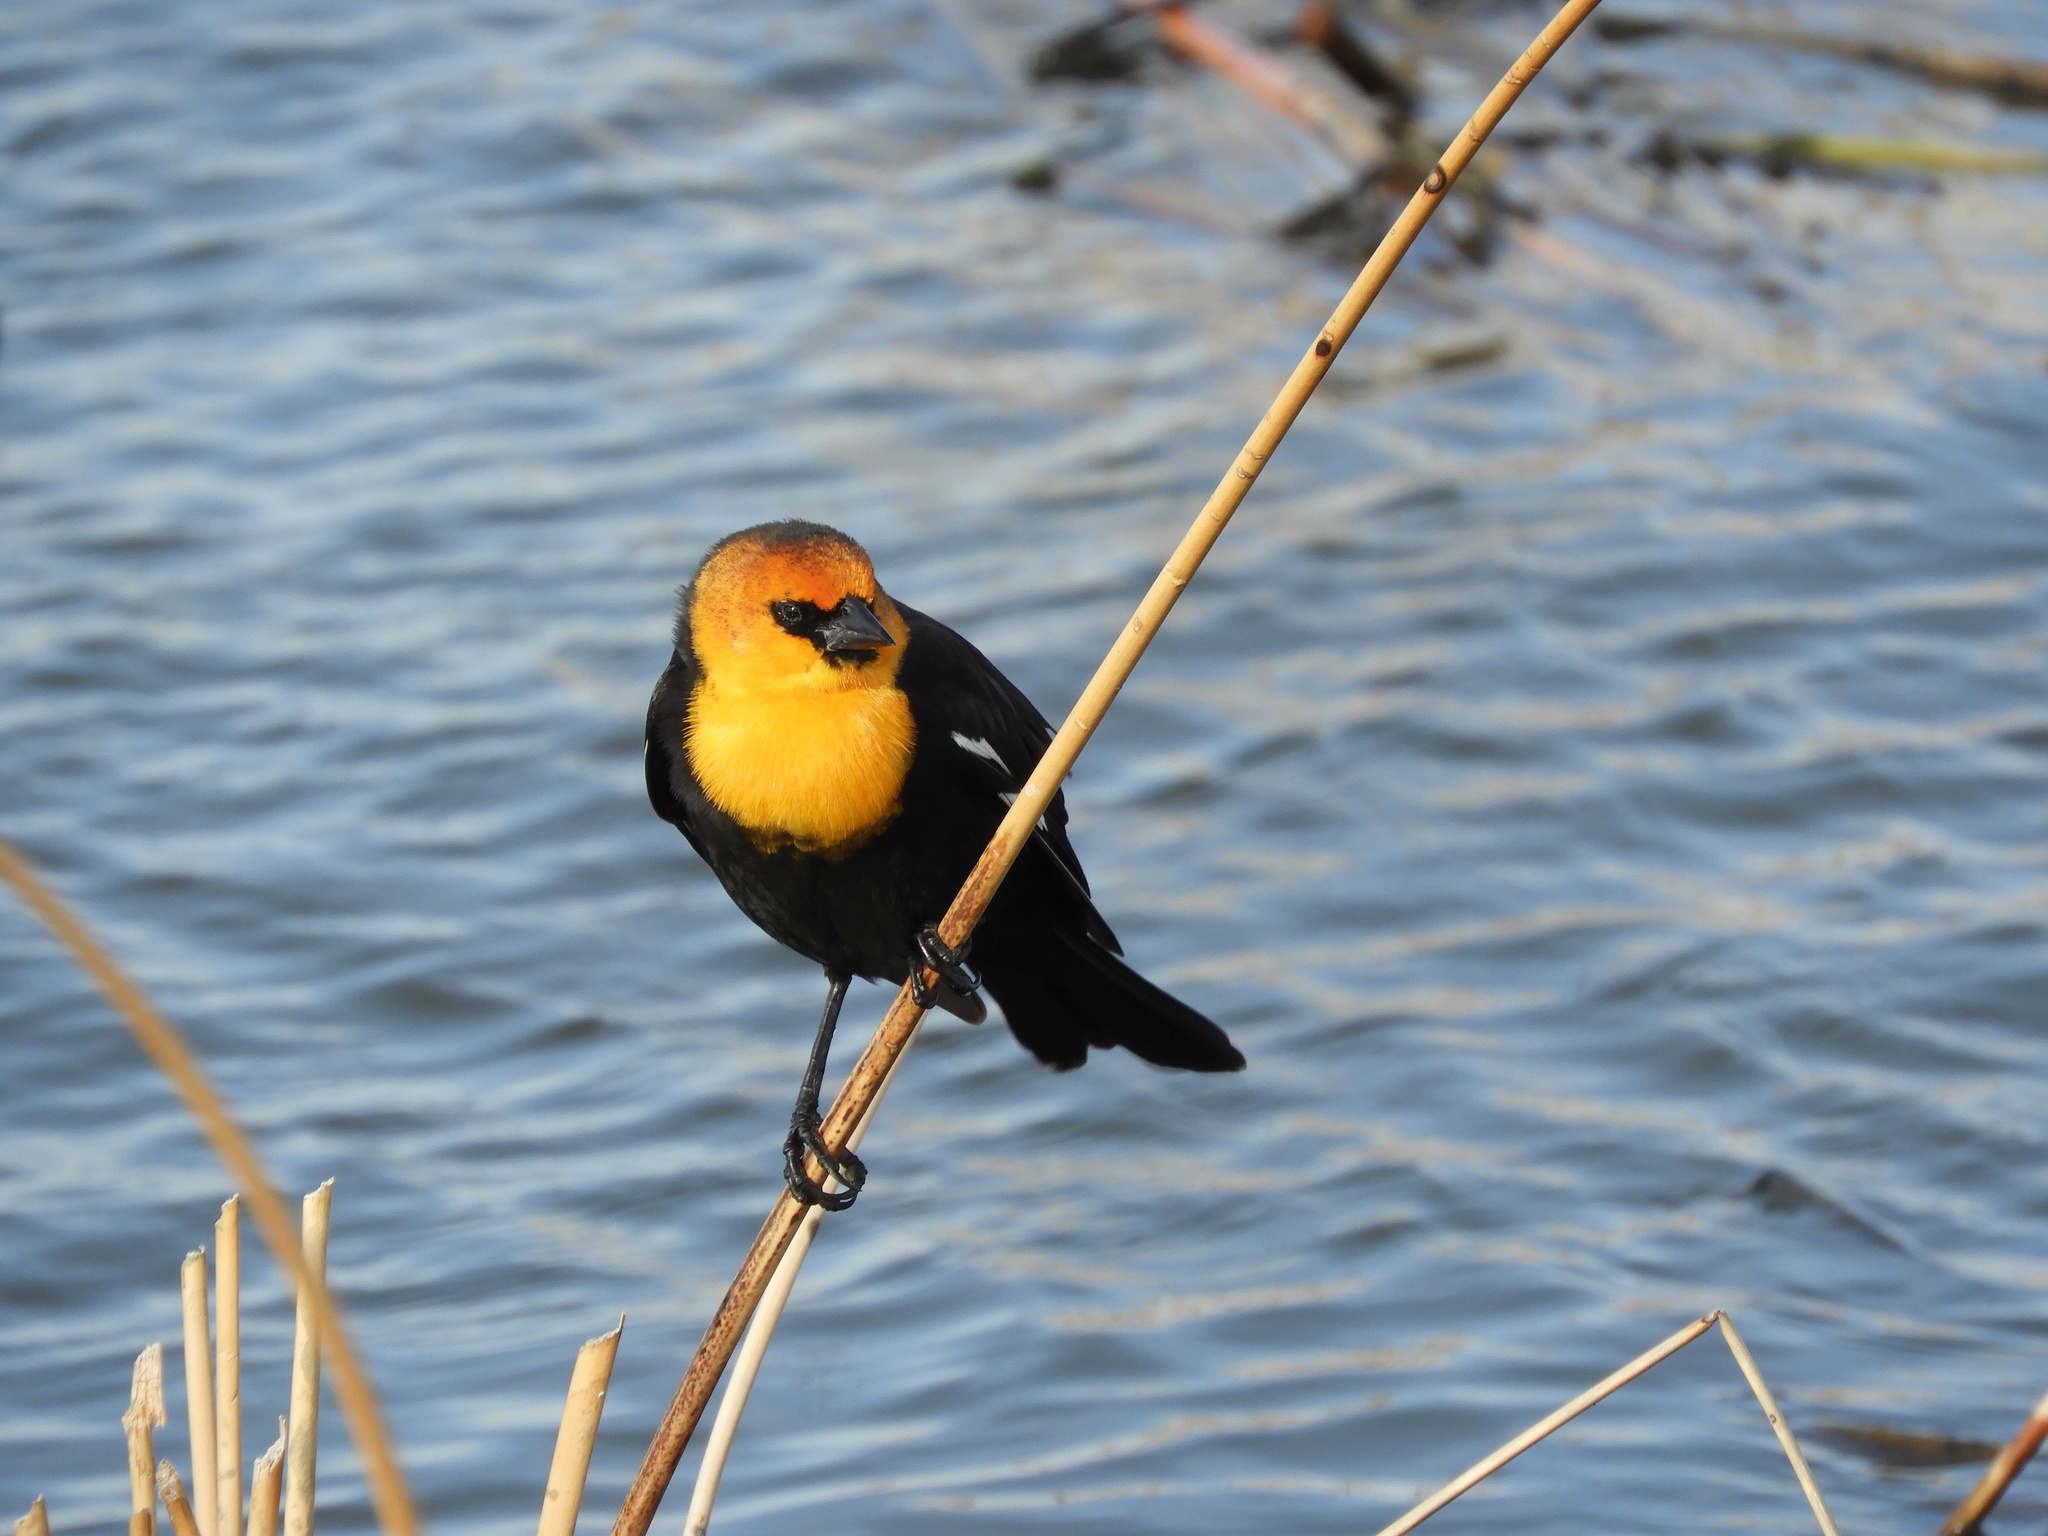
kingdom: Animalia
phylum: Chordata
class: Aves
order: Passeriformes
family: Icteridae
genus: Xanthocephalus
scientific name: Xanthocephalus xanthocephalus
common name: Yellow-headed blackbird
